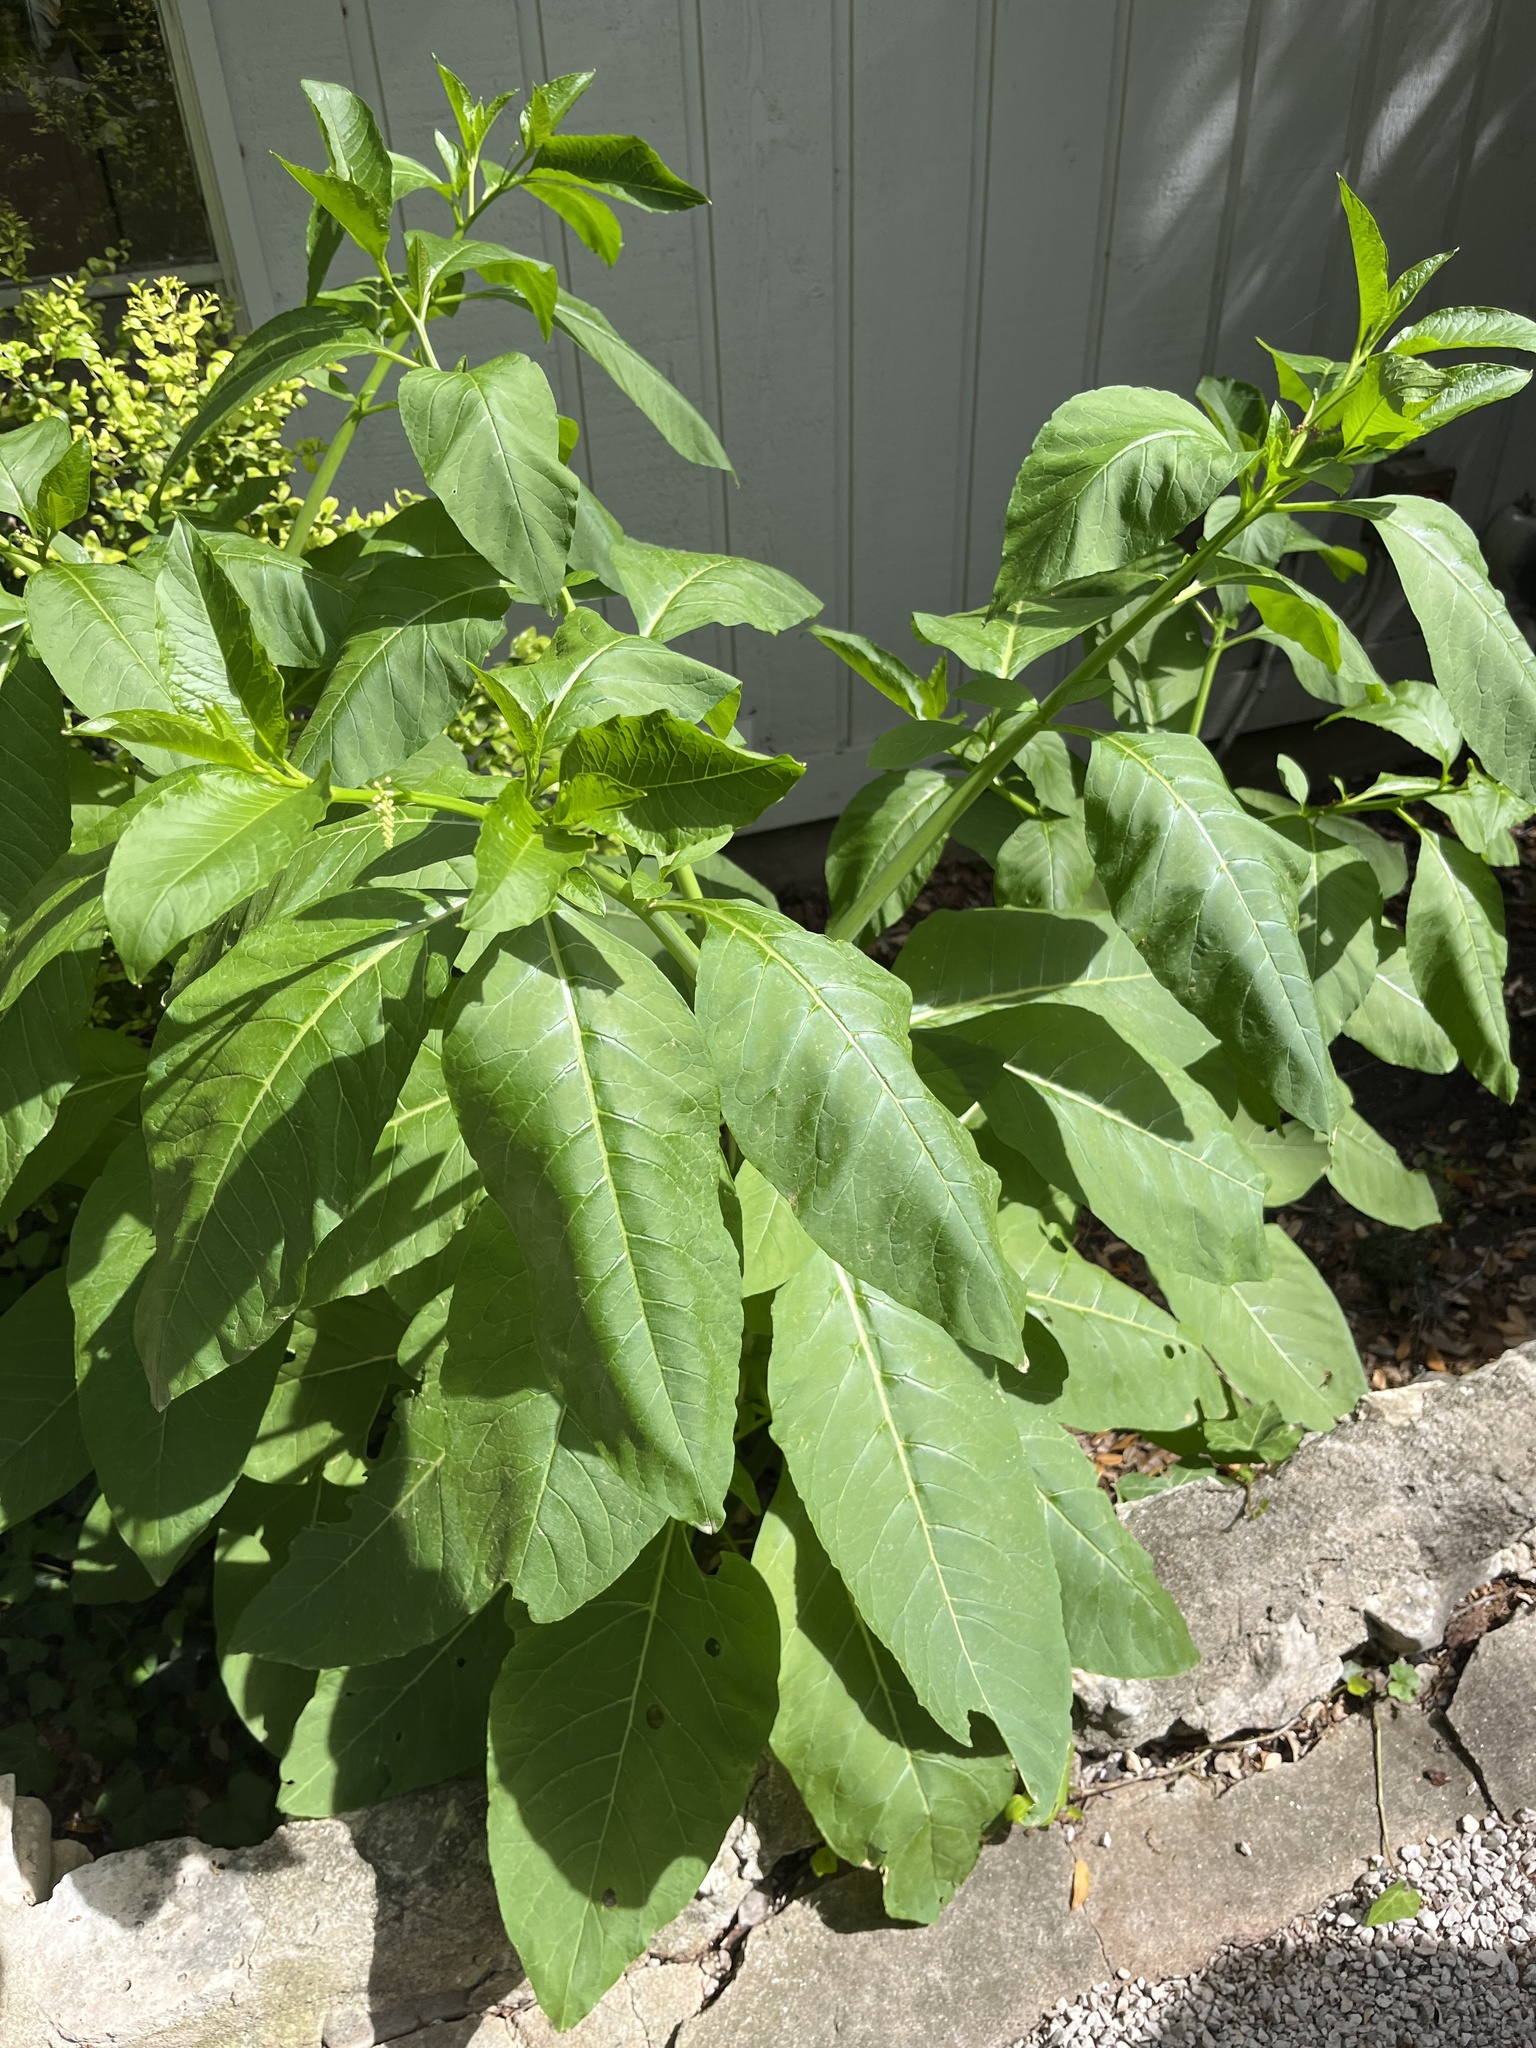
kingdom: Plantae
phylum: Tracheophyta
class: Magnoliopsida
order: Caryophyllales
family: Phytolaccaceae
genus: Phytolacca
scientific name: Phytolacca americana
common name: American pokeweed
